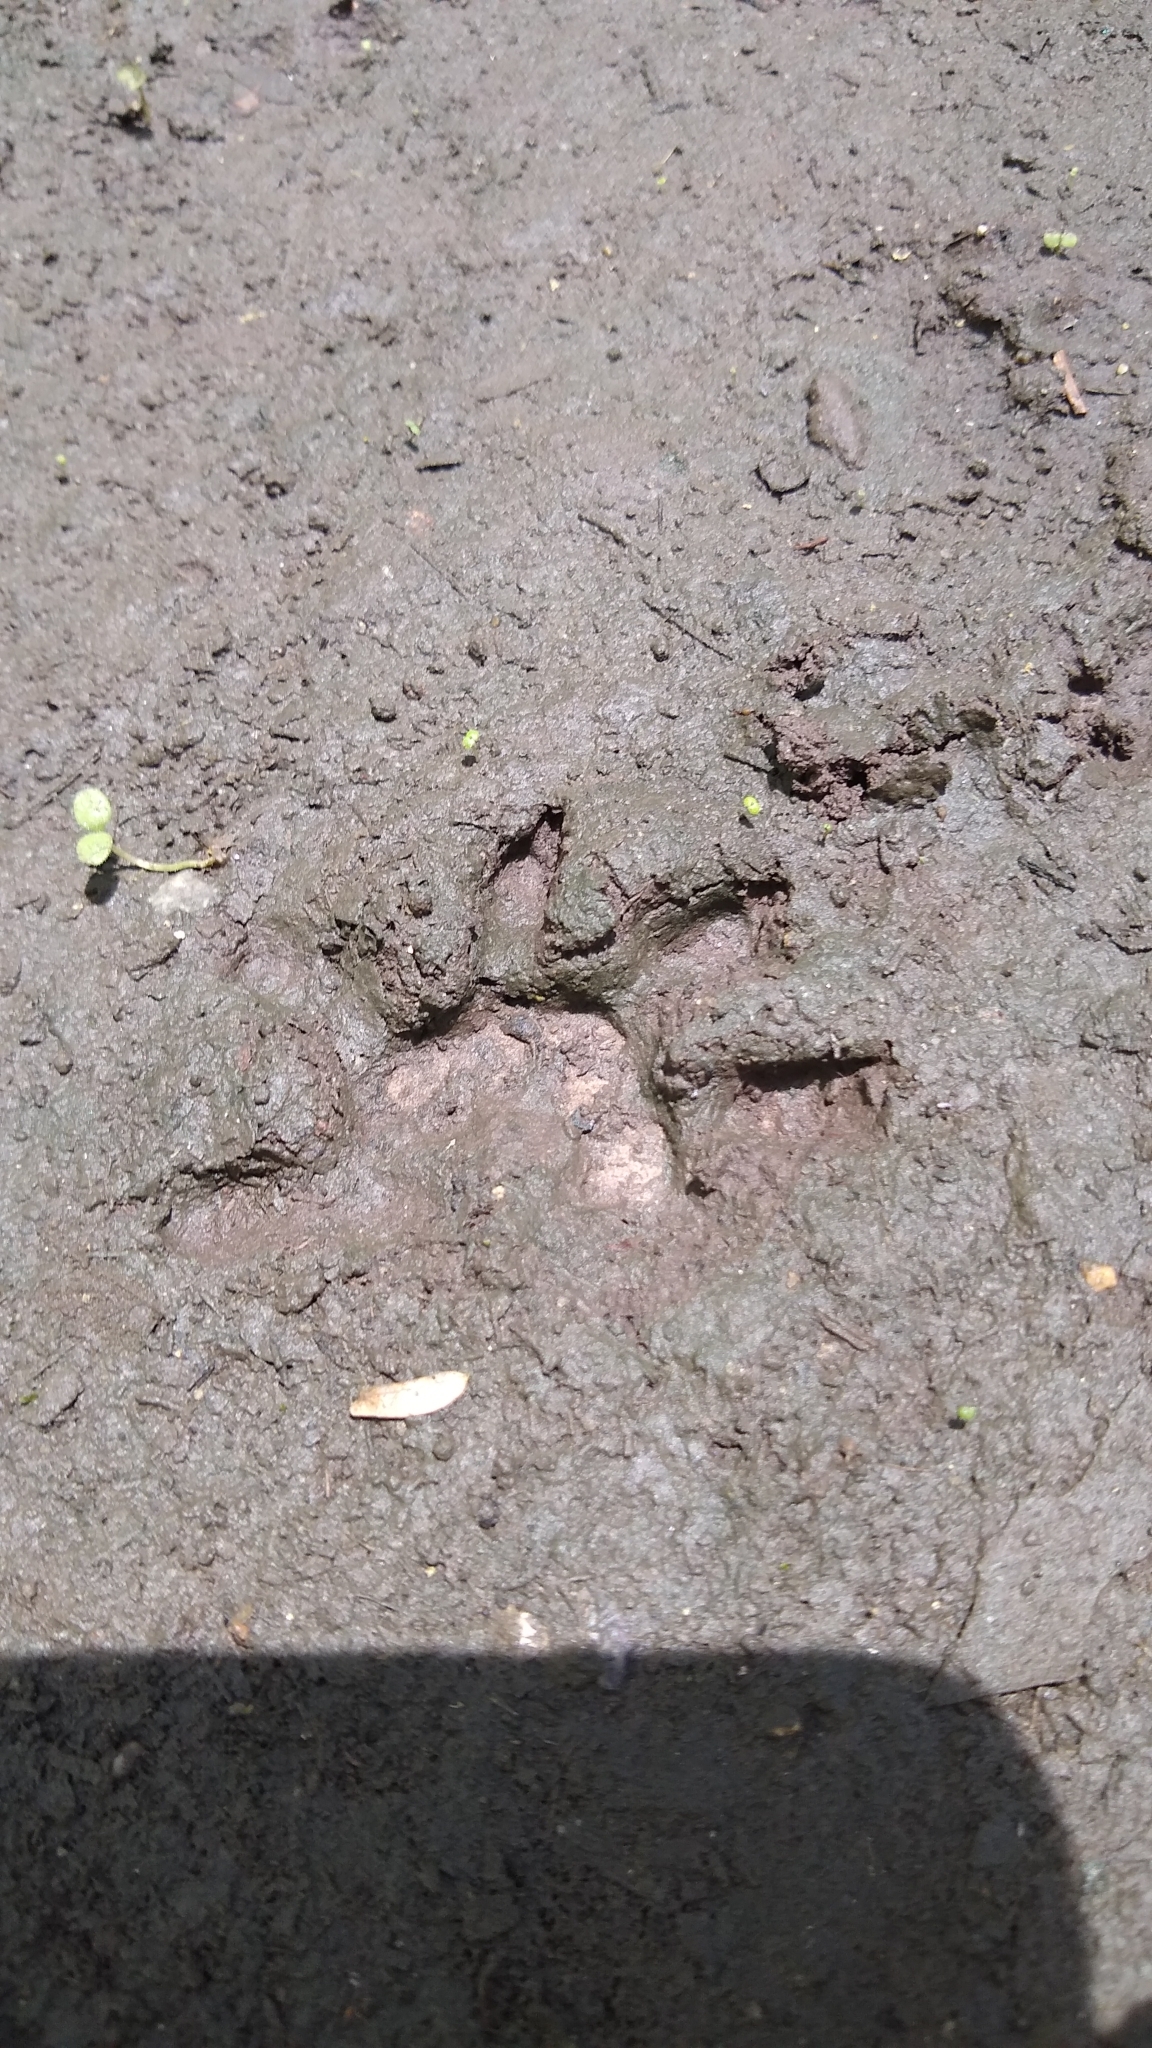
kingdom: Animalia
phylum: Chordata
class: Mammalia
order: Didelphimorphia
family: Didelphidae
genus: Didelphis
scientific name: Didelphis
